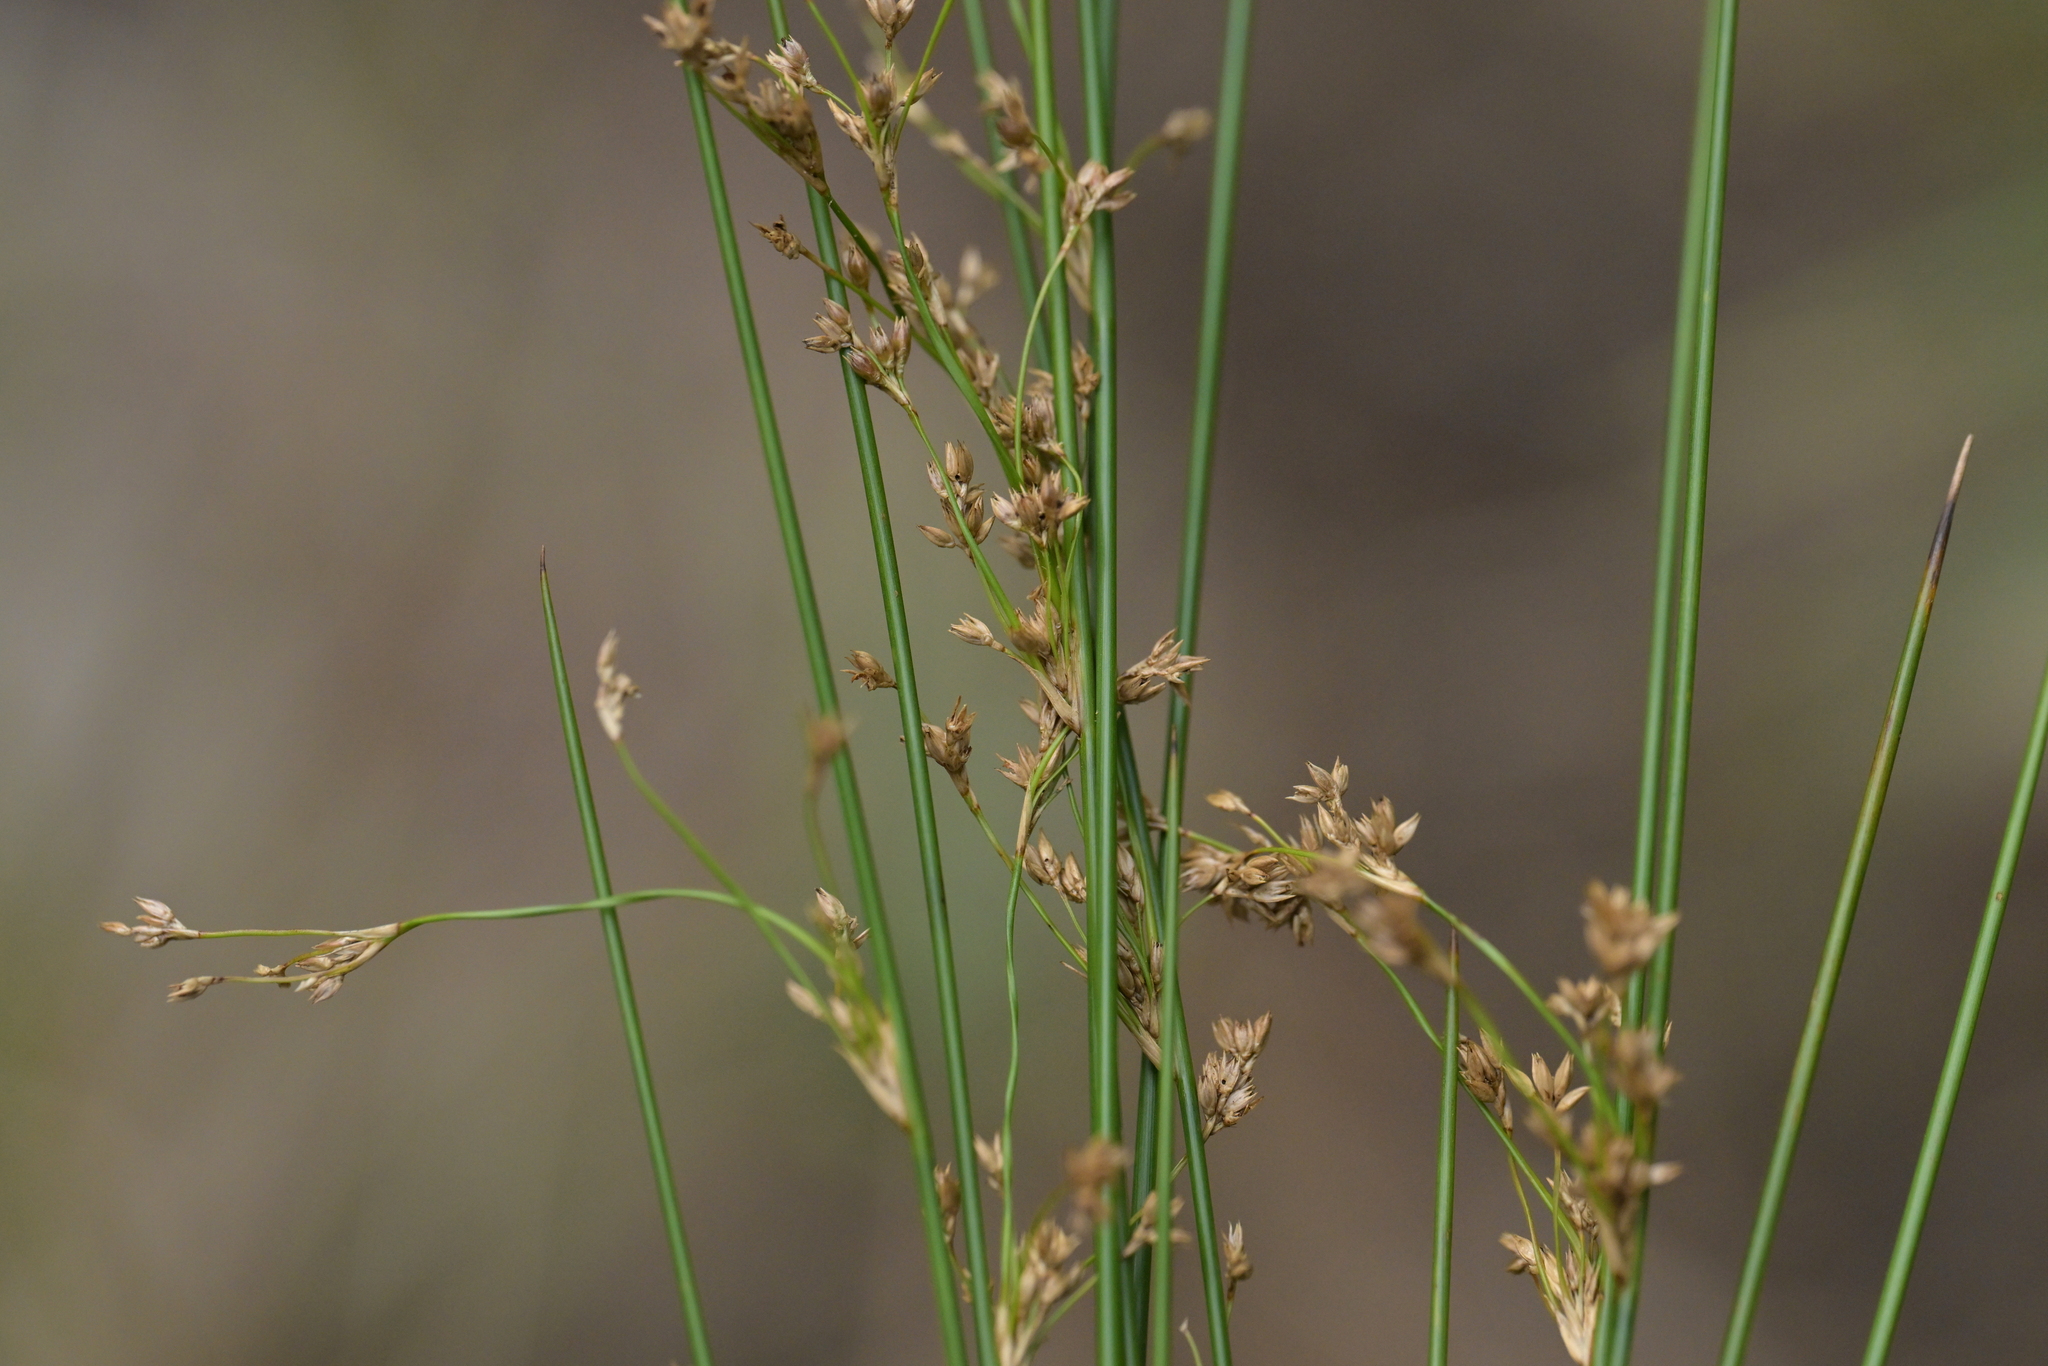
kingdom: Plantae
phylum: Tracheophyta
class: Liliopsida
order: Poales
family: Juncaceae
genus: Juncus
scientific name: Juncus pauciflorus
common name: Loose-flowered rush
